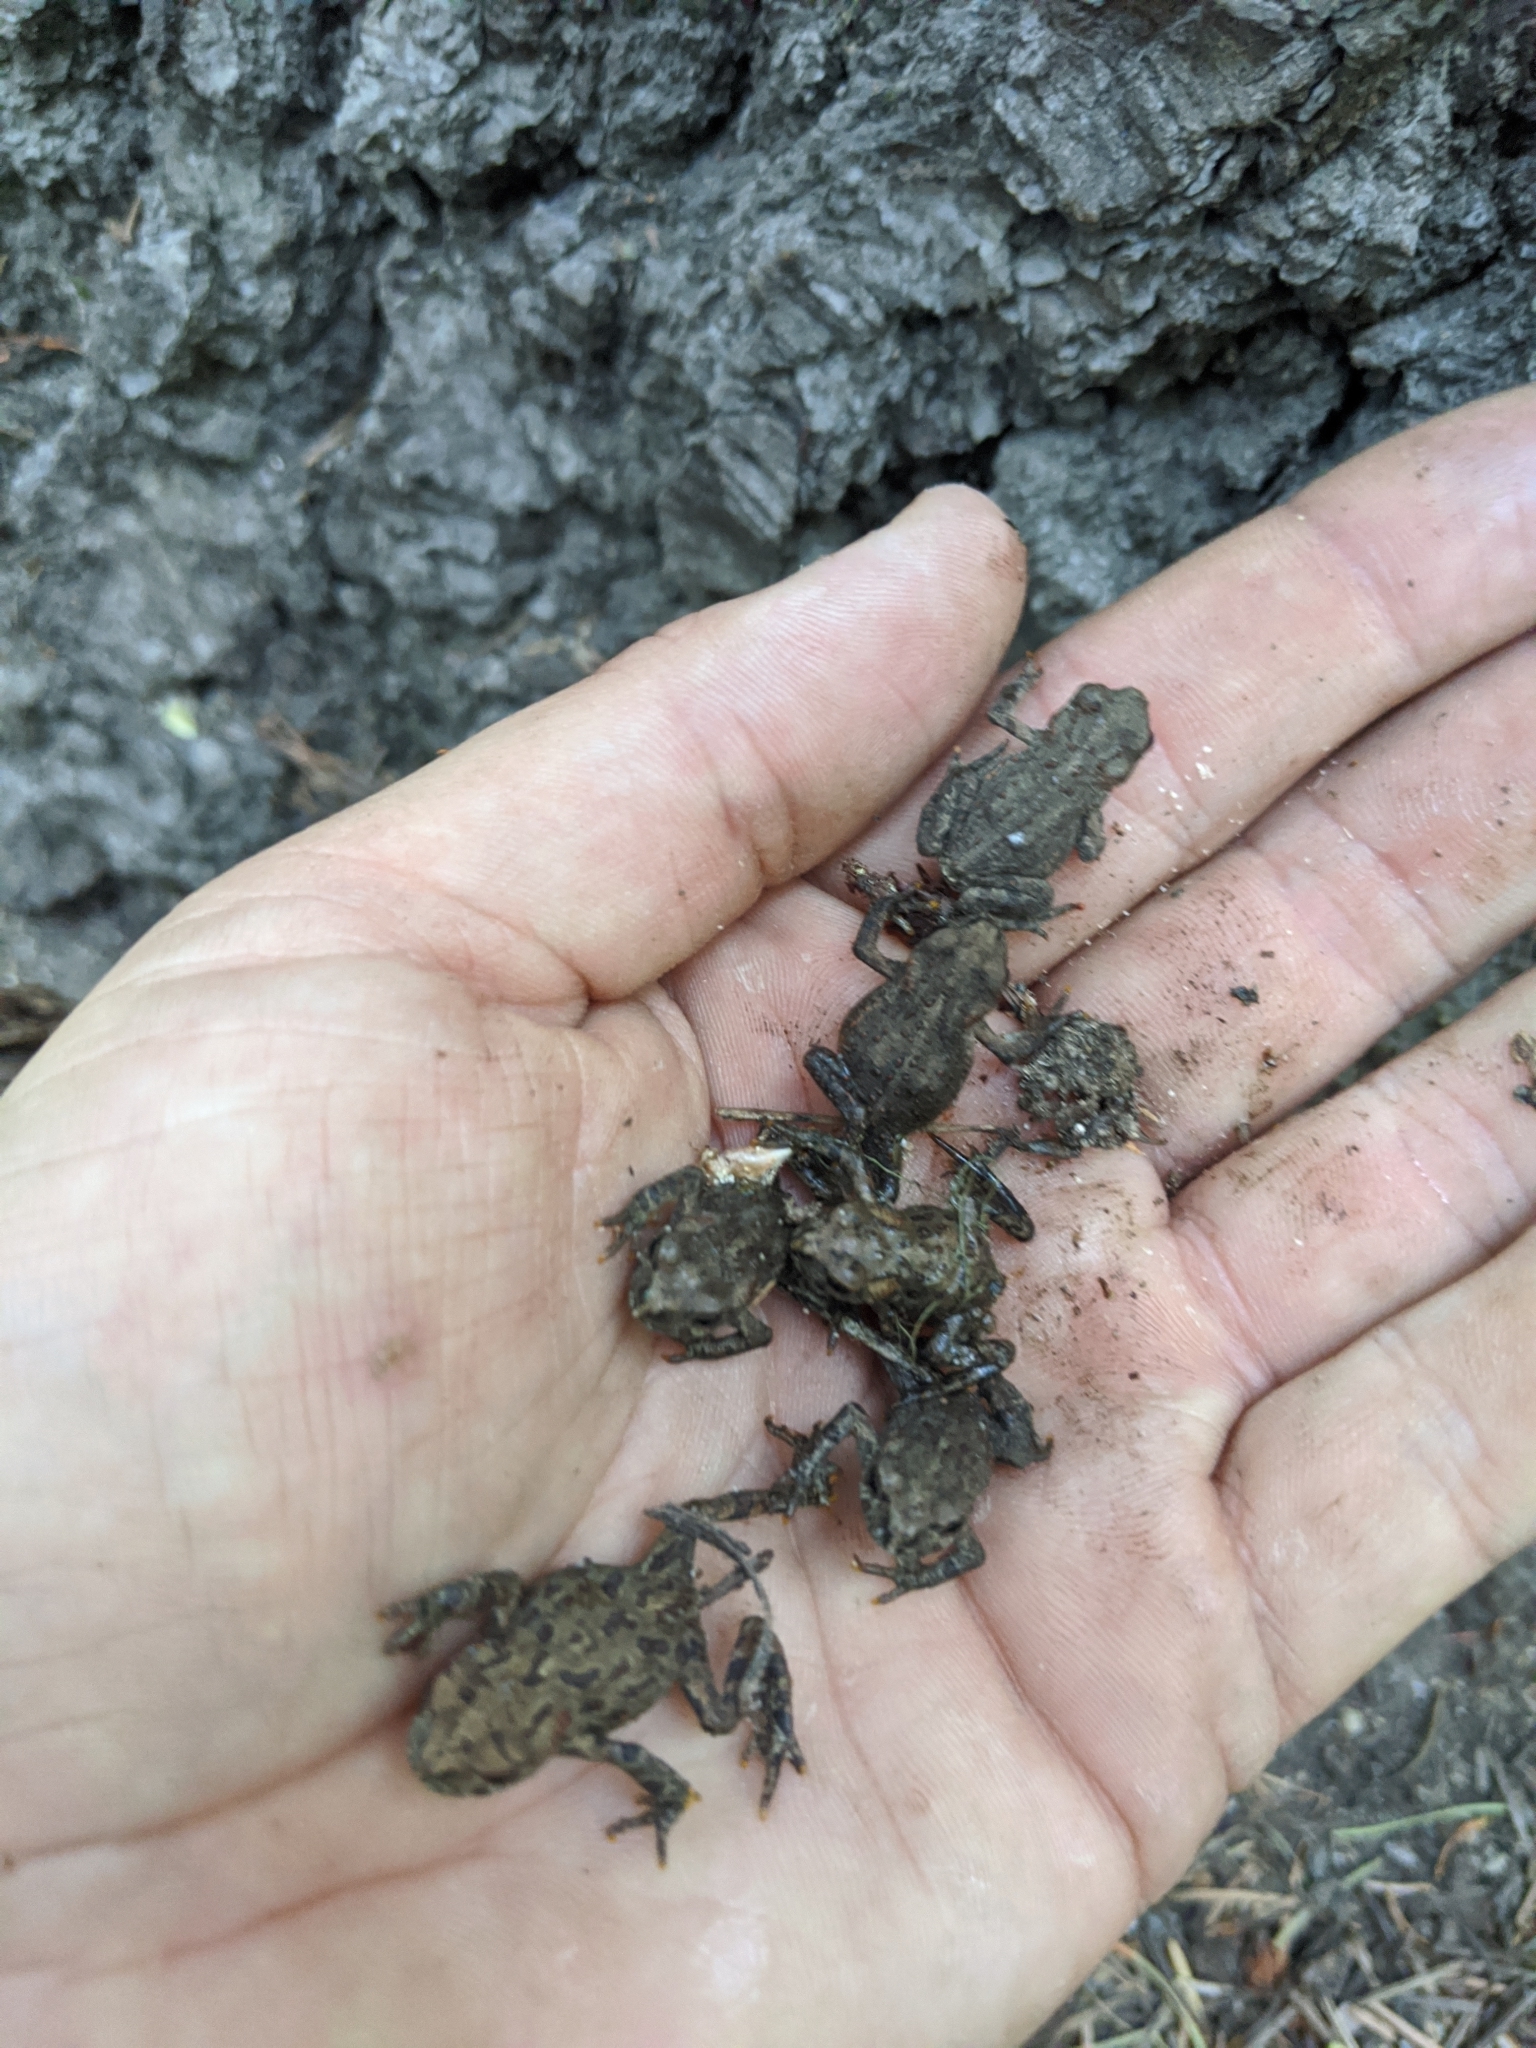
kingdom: Animalia
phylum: Chordata
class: Amphibia
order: Anura
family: Bufonidae
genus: Anaxyrus
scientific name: Anaxyrus boreas
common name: Western toad
